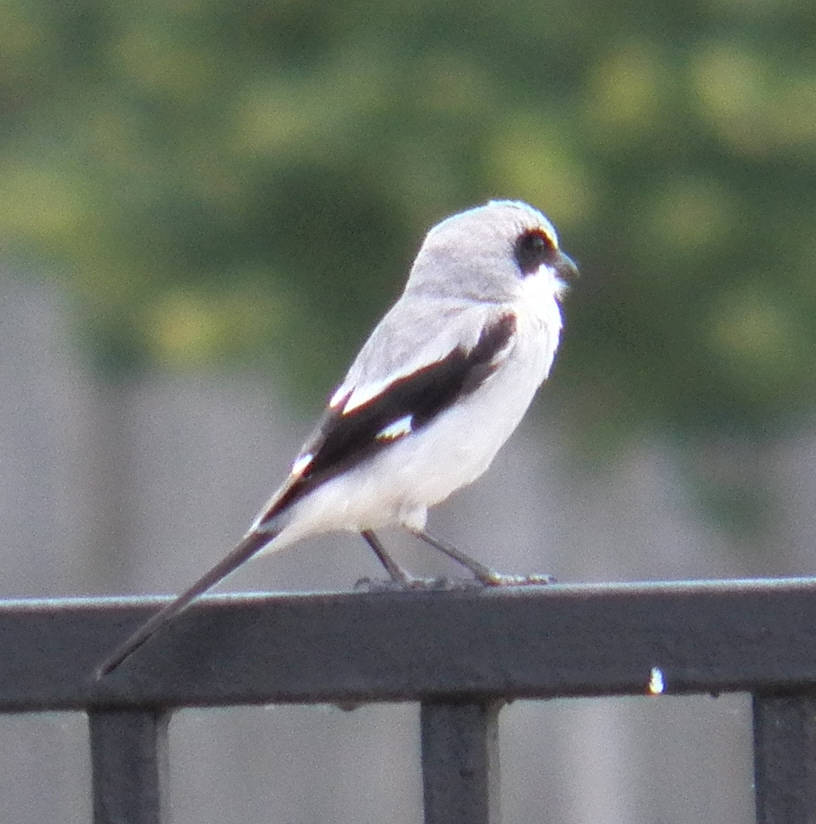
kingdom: Animalia
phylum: Chordata
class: Aves
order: Passeriformes
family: Laniidae
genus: Lanius
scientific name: Lanius ludovicianus
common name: Loggerhead shrike
